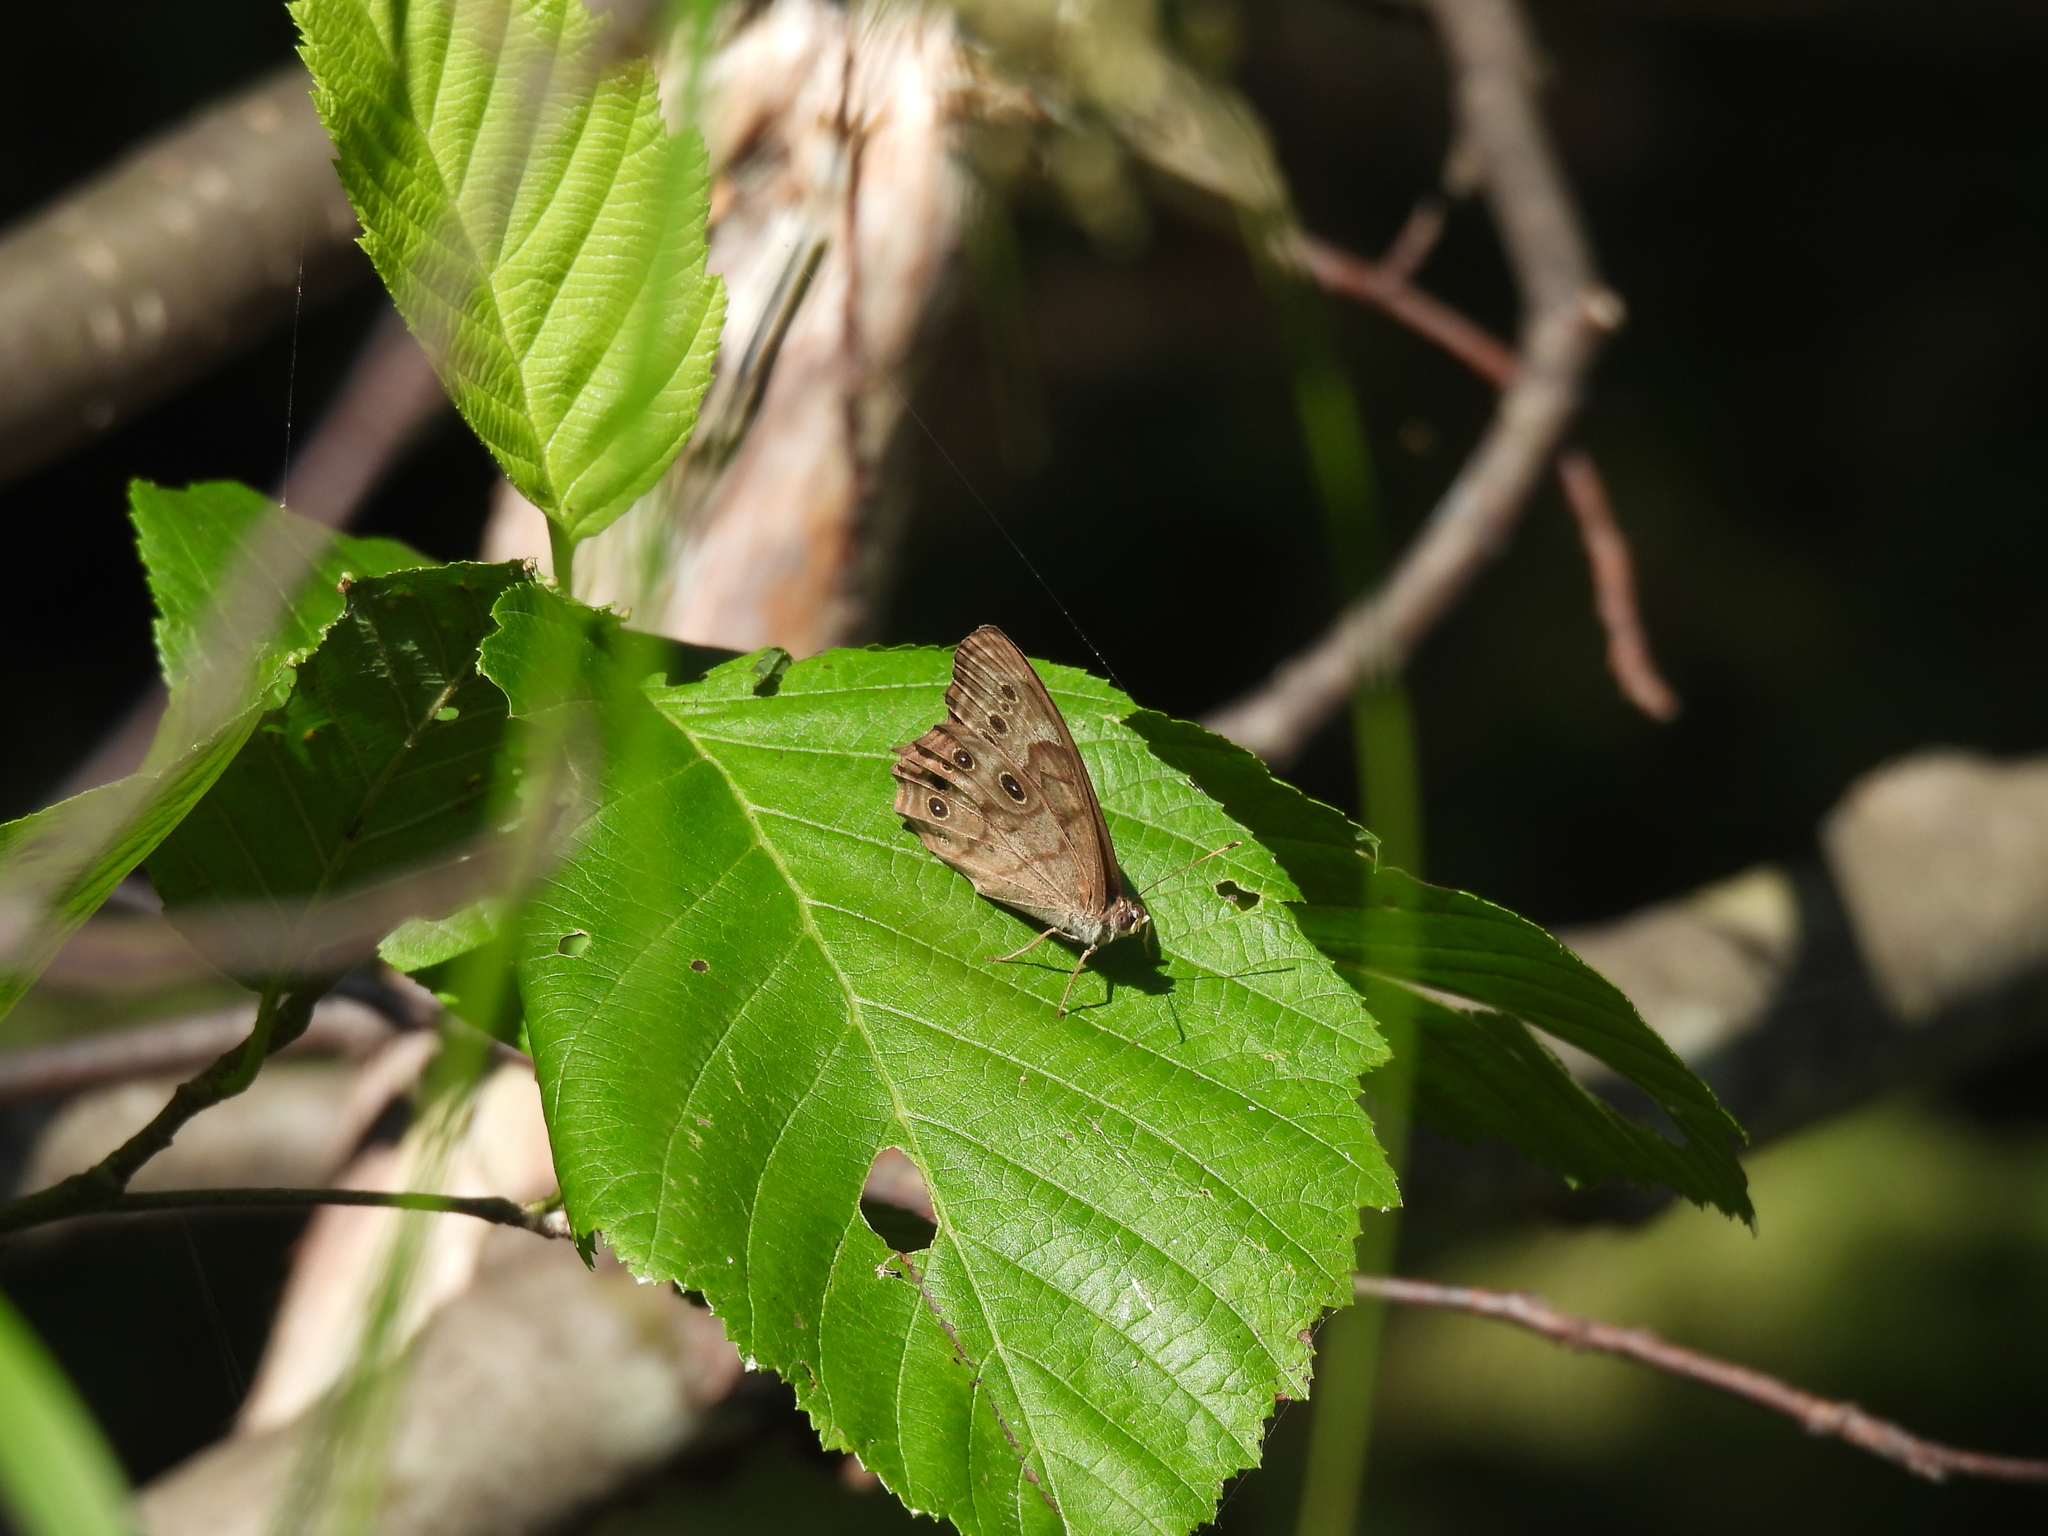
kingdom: Animalia
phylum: Arthropoda
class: Insecta
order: Lepidoptera
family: Nymphalidae
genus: Lethe
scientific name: Lethe anthedon
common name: Northern pearly-eye
